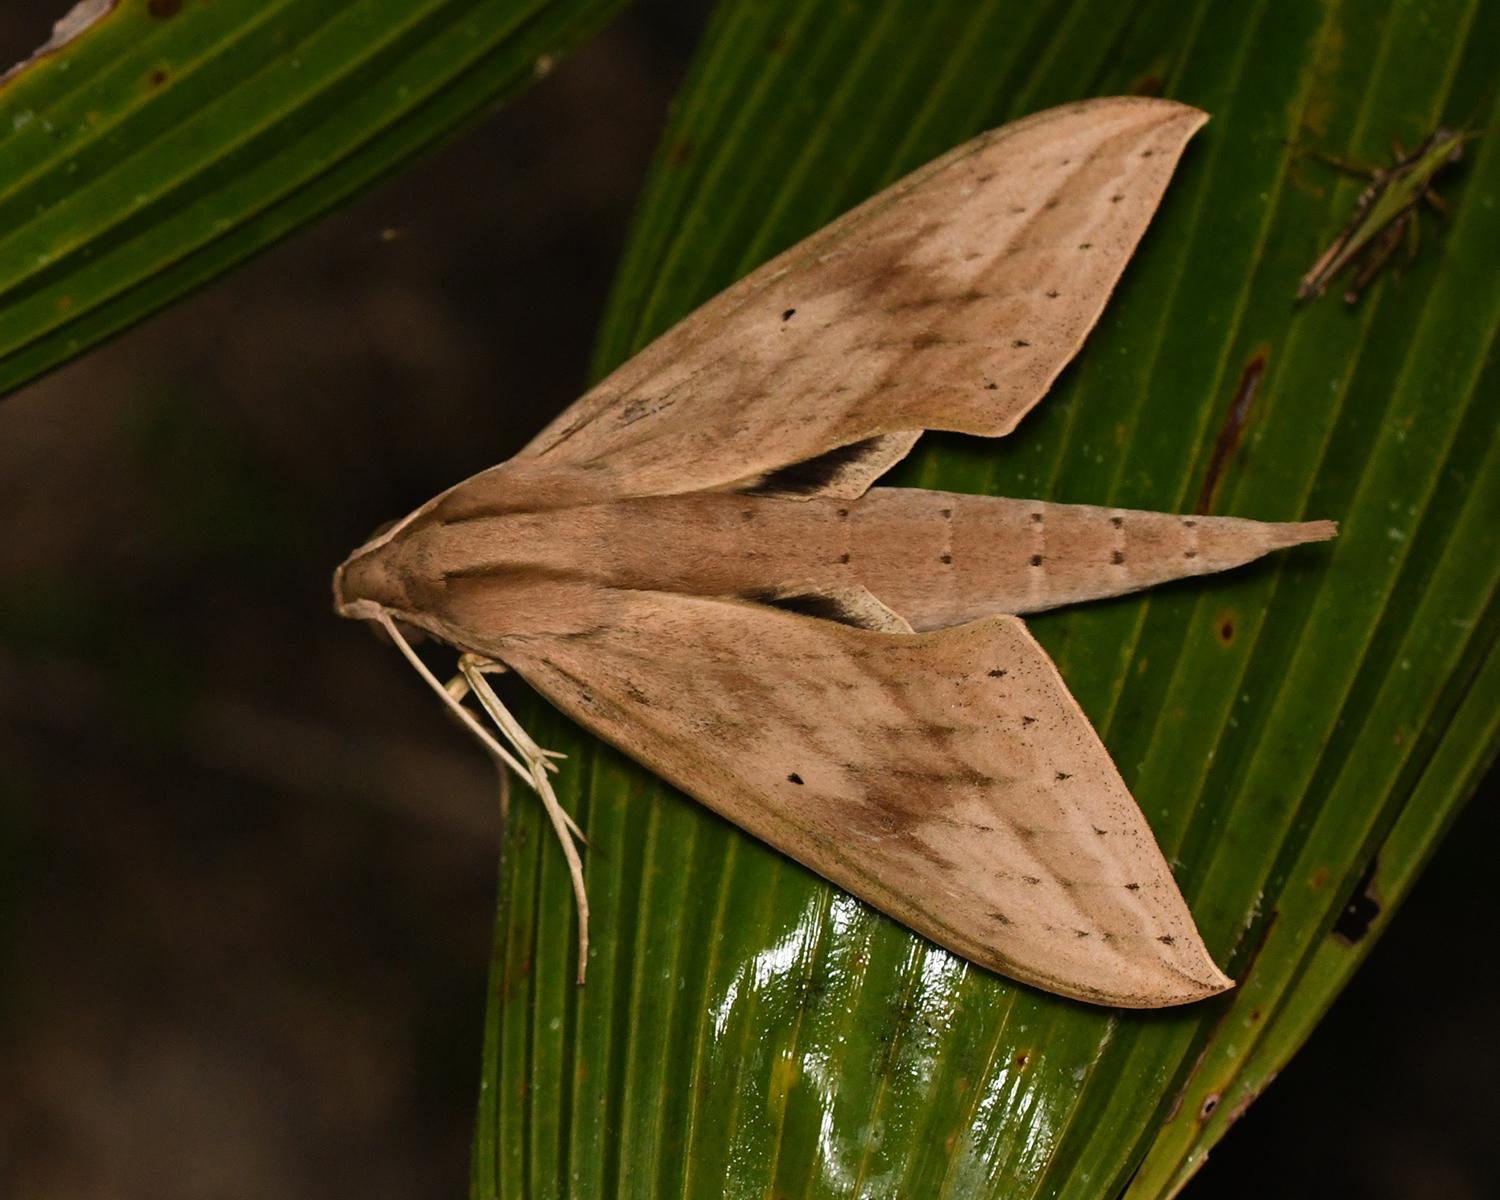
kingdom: Animalia
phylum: Arthropoda
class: Insecta
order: Lepidoptera
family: Sphingidae
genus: Xylophanes
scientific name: Xylophanes anubus
